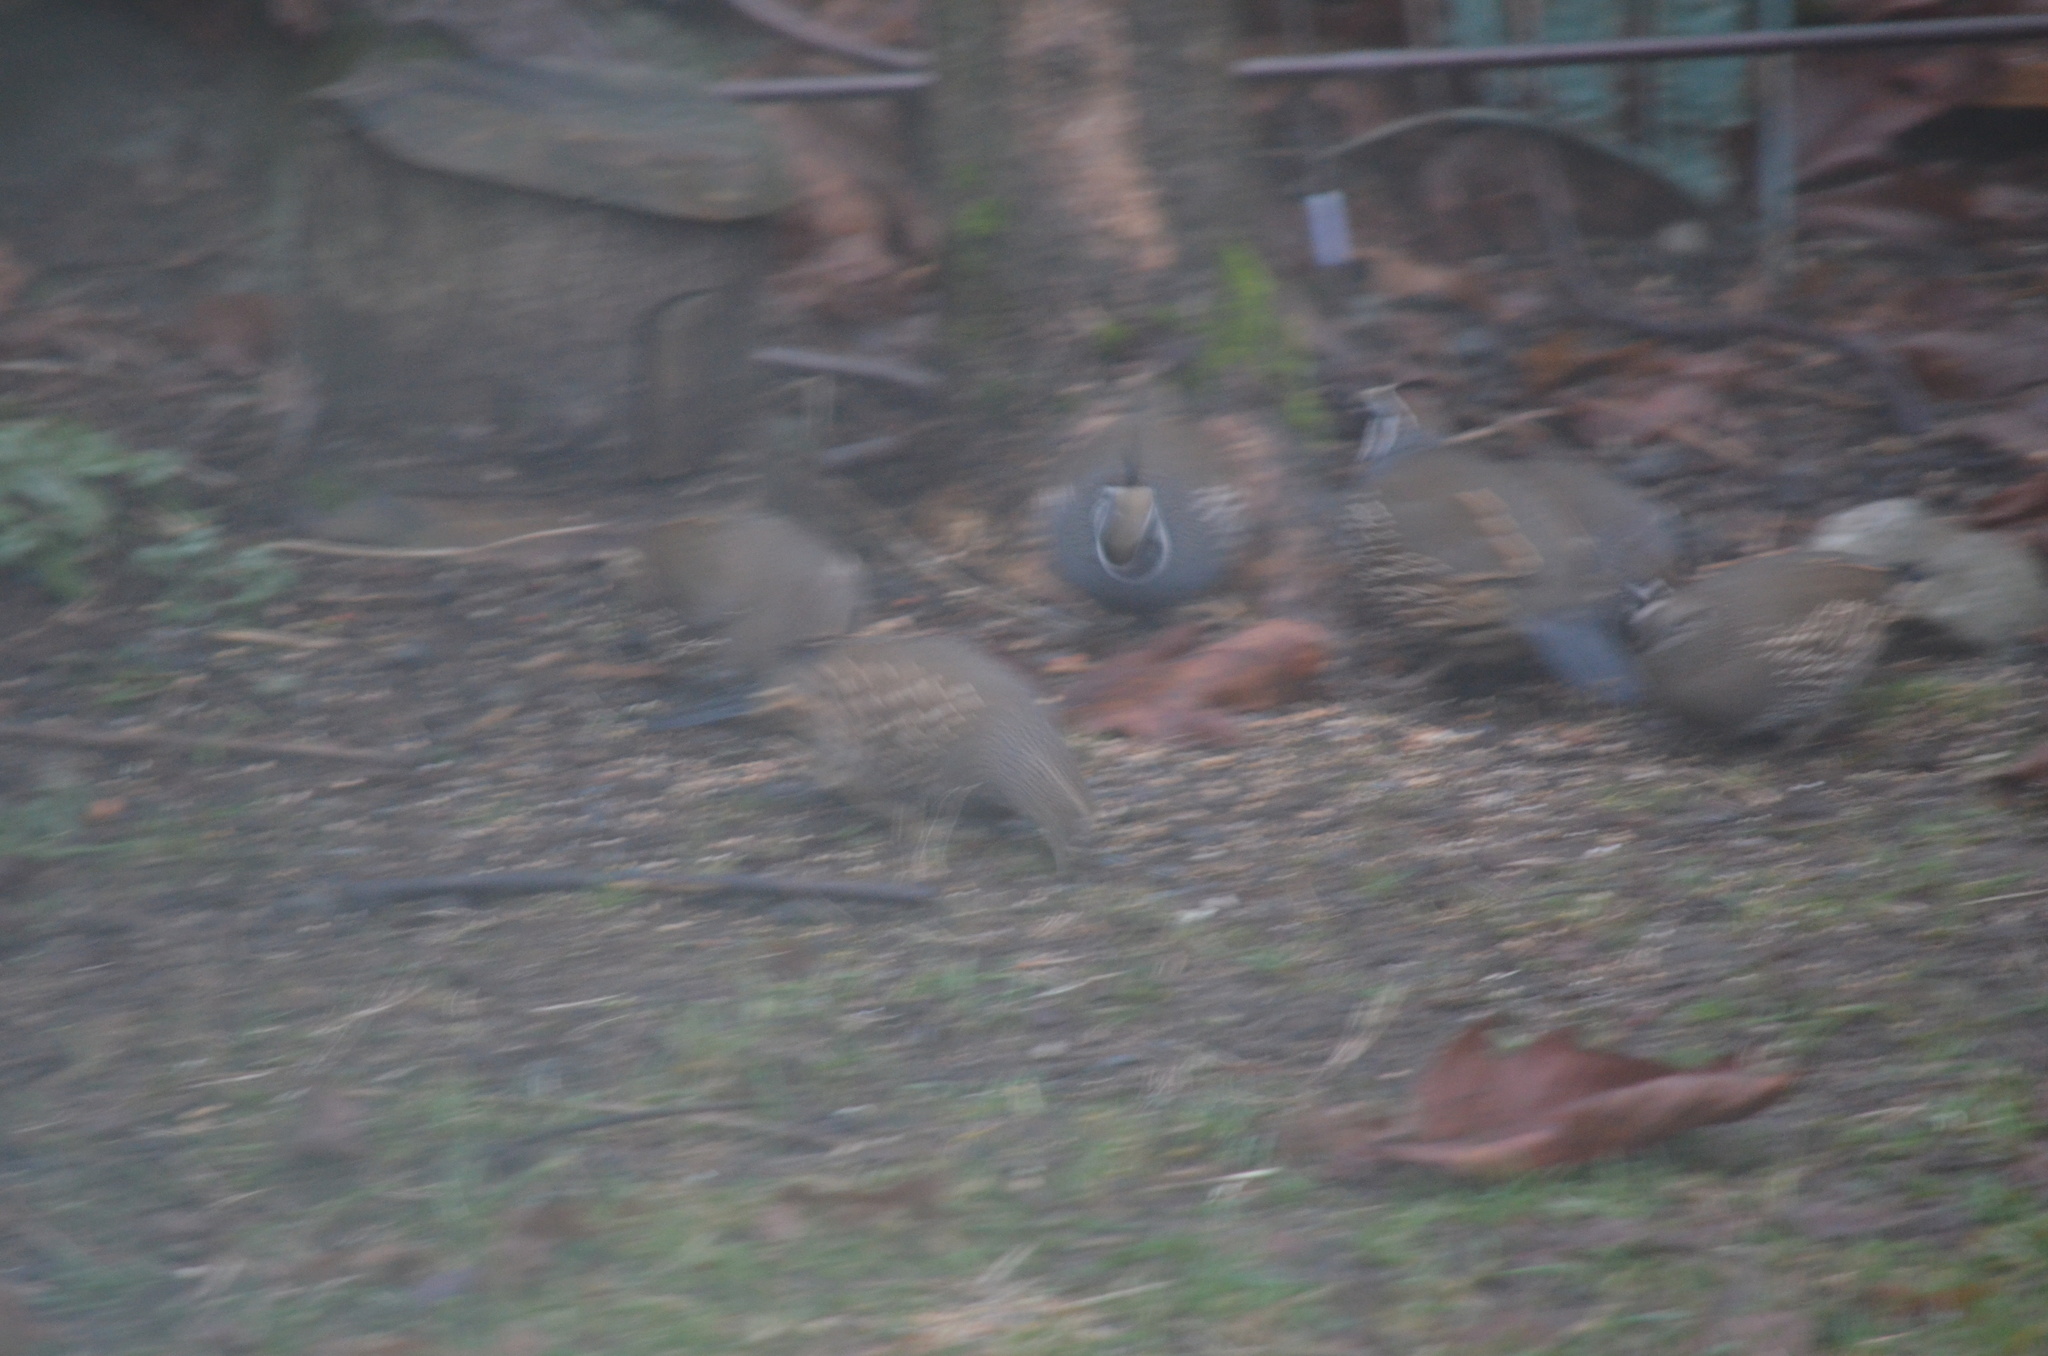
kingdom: Animalia
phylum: Chordata
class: Aves
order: Galliformes
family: Odontophoridae
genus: Callipepla
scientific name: Callipepla californica
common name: California quail
